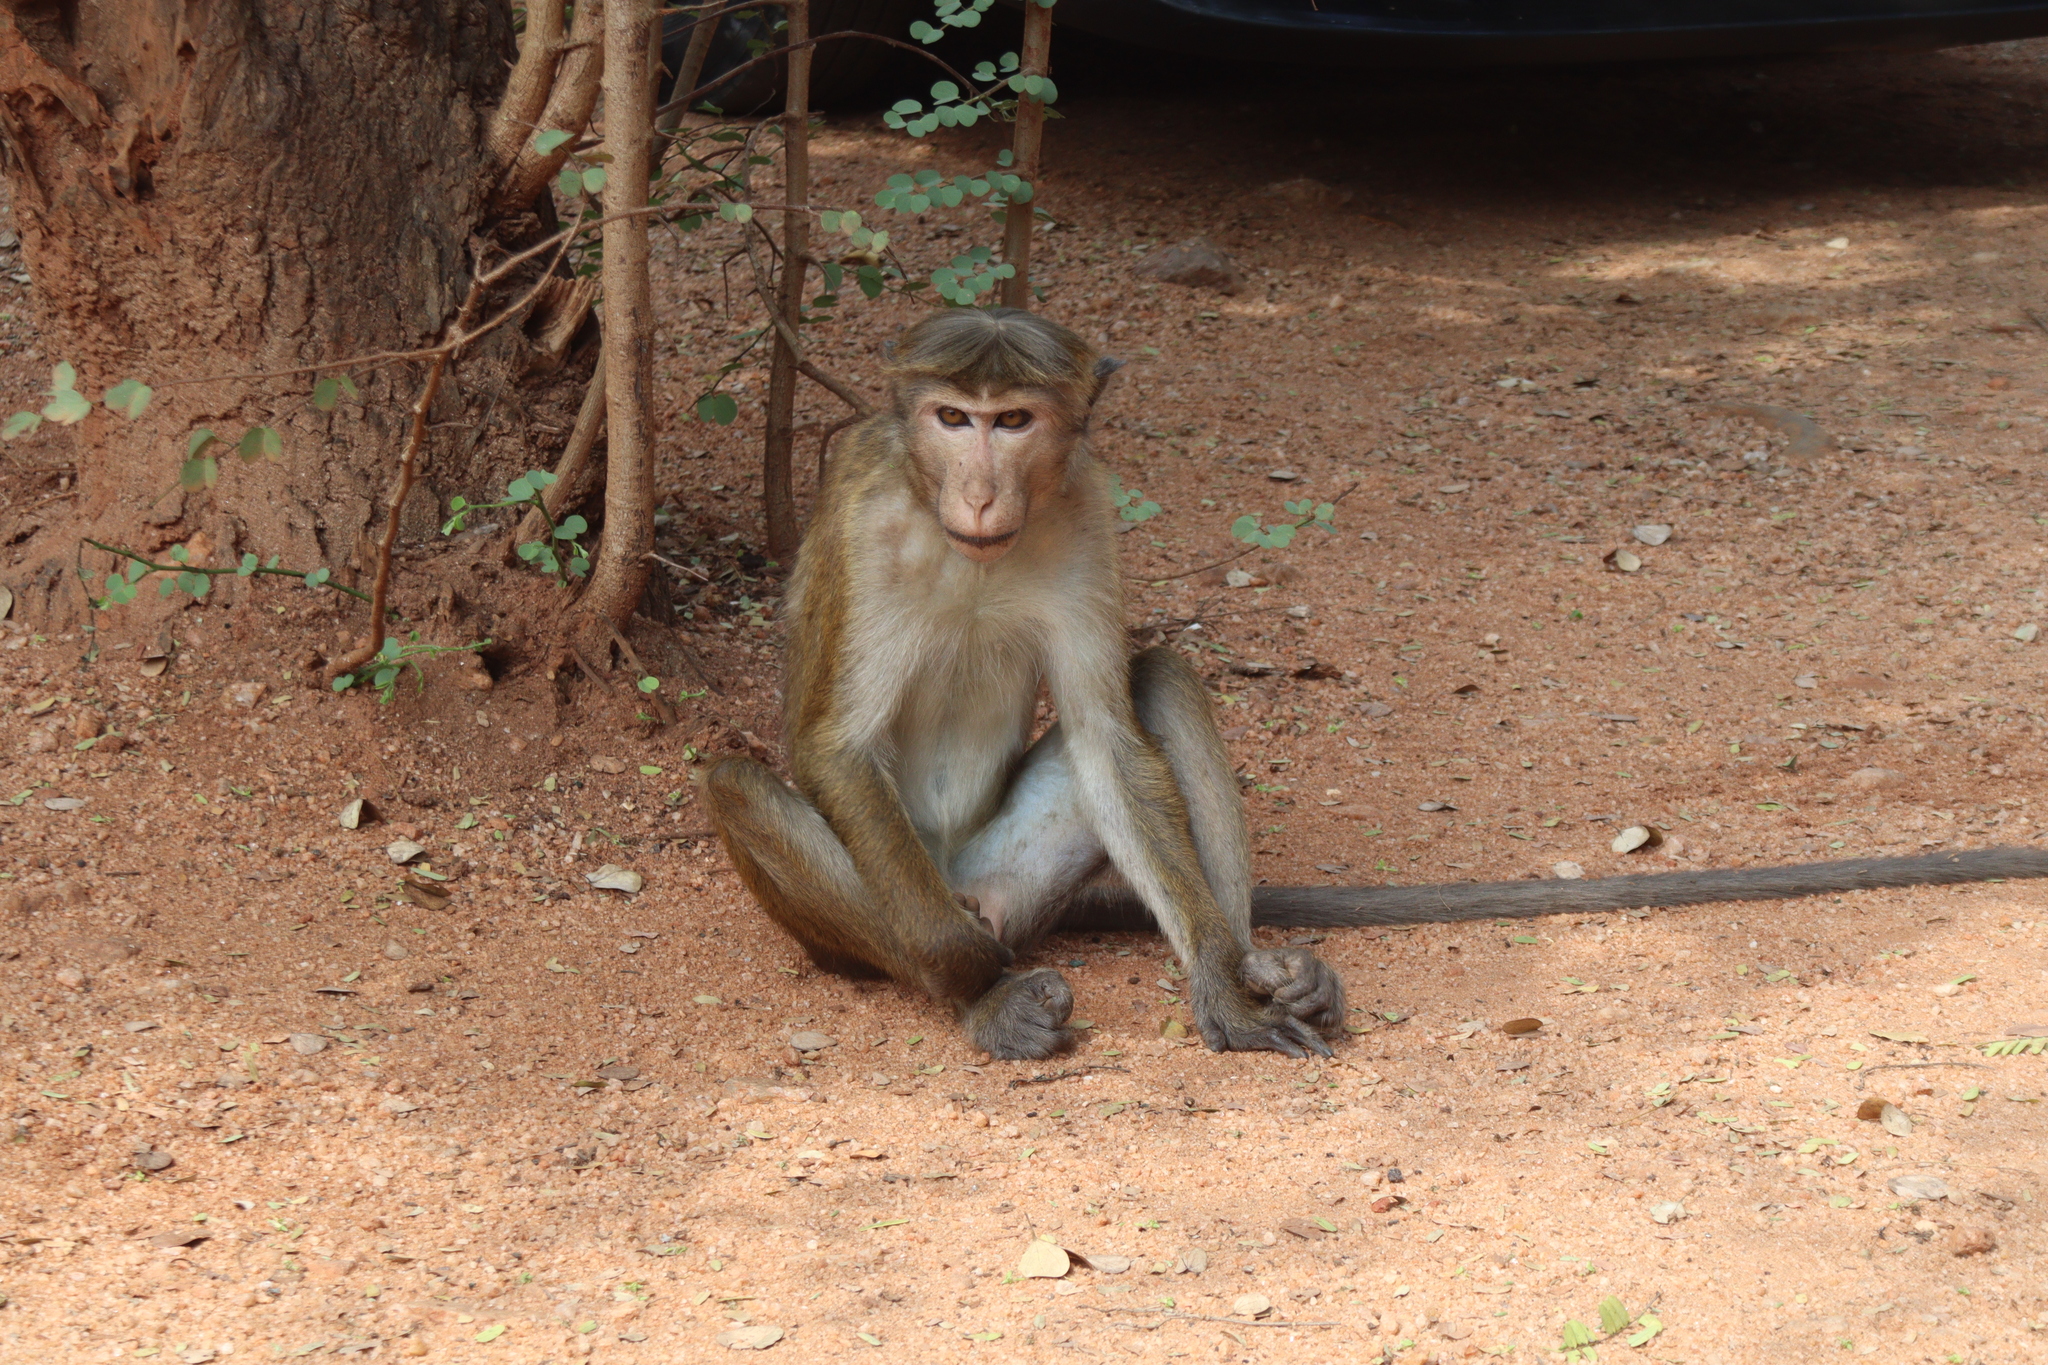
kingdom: Animalia
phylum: Chordata
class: Mammalia
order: Primates
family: Cercopithecidae
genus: Macaca
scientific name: Macaca sinica
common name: Toque macaque
